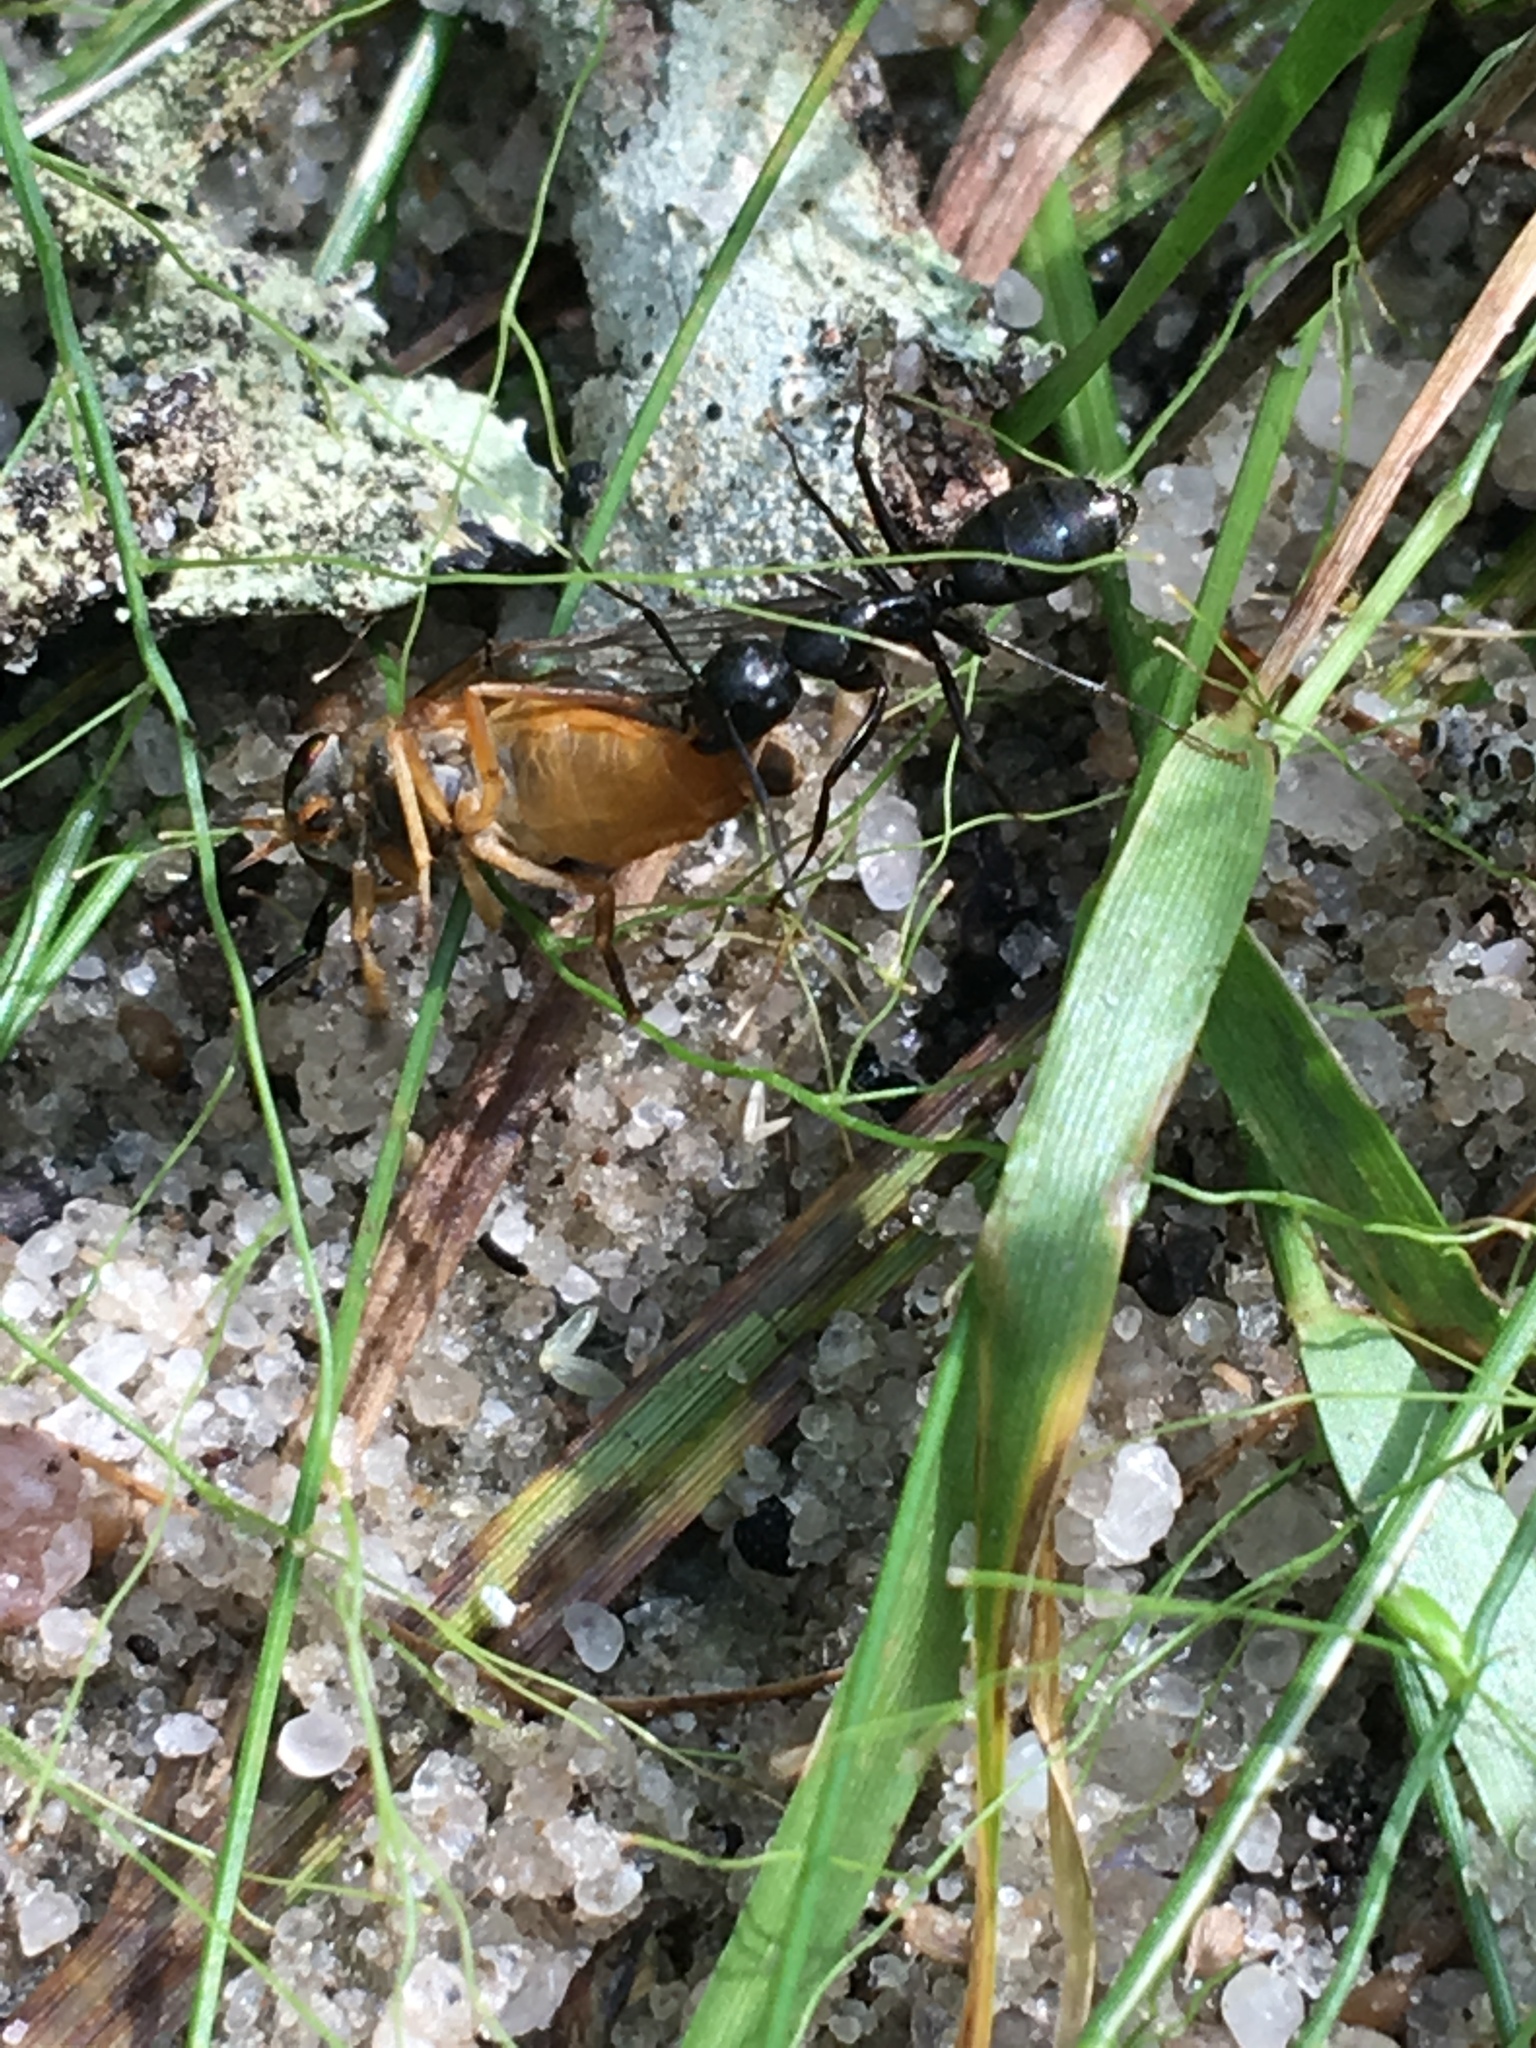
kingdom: Animalia
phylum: Arthropoda
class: Insecta
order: Hymenoptera
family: Formicidae
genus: Camponotus
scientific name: Camponotus pennsylvanicus
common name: Black carpenter ant
